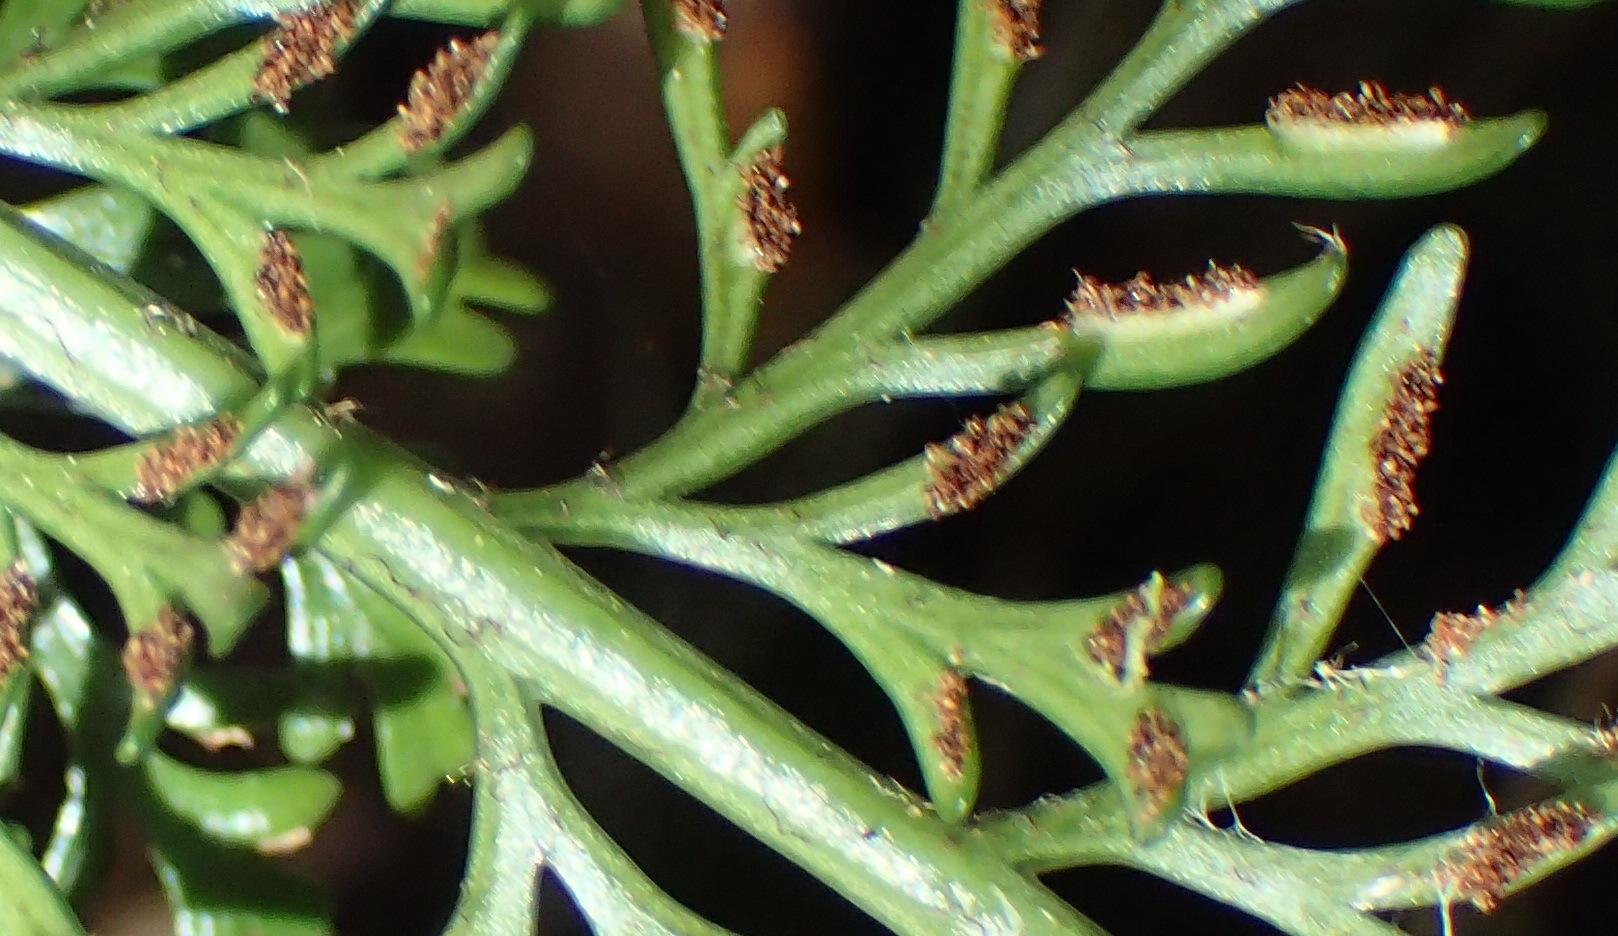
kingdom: Plantae
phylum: Tracheophyta
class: Polypodiopsida
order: Polypodiales
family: Aspleniaceae
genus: Asplenium
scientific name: Asplenium rutifolium
